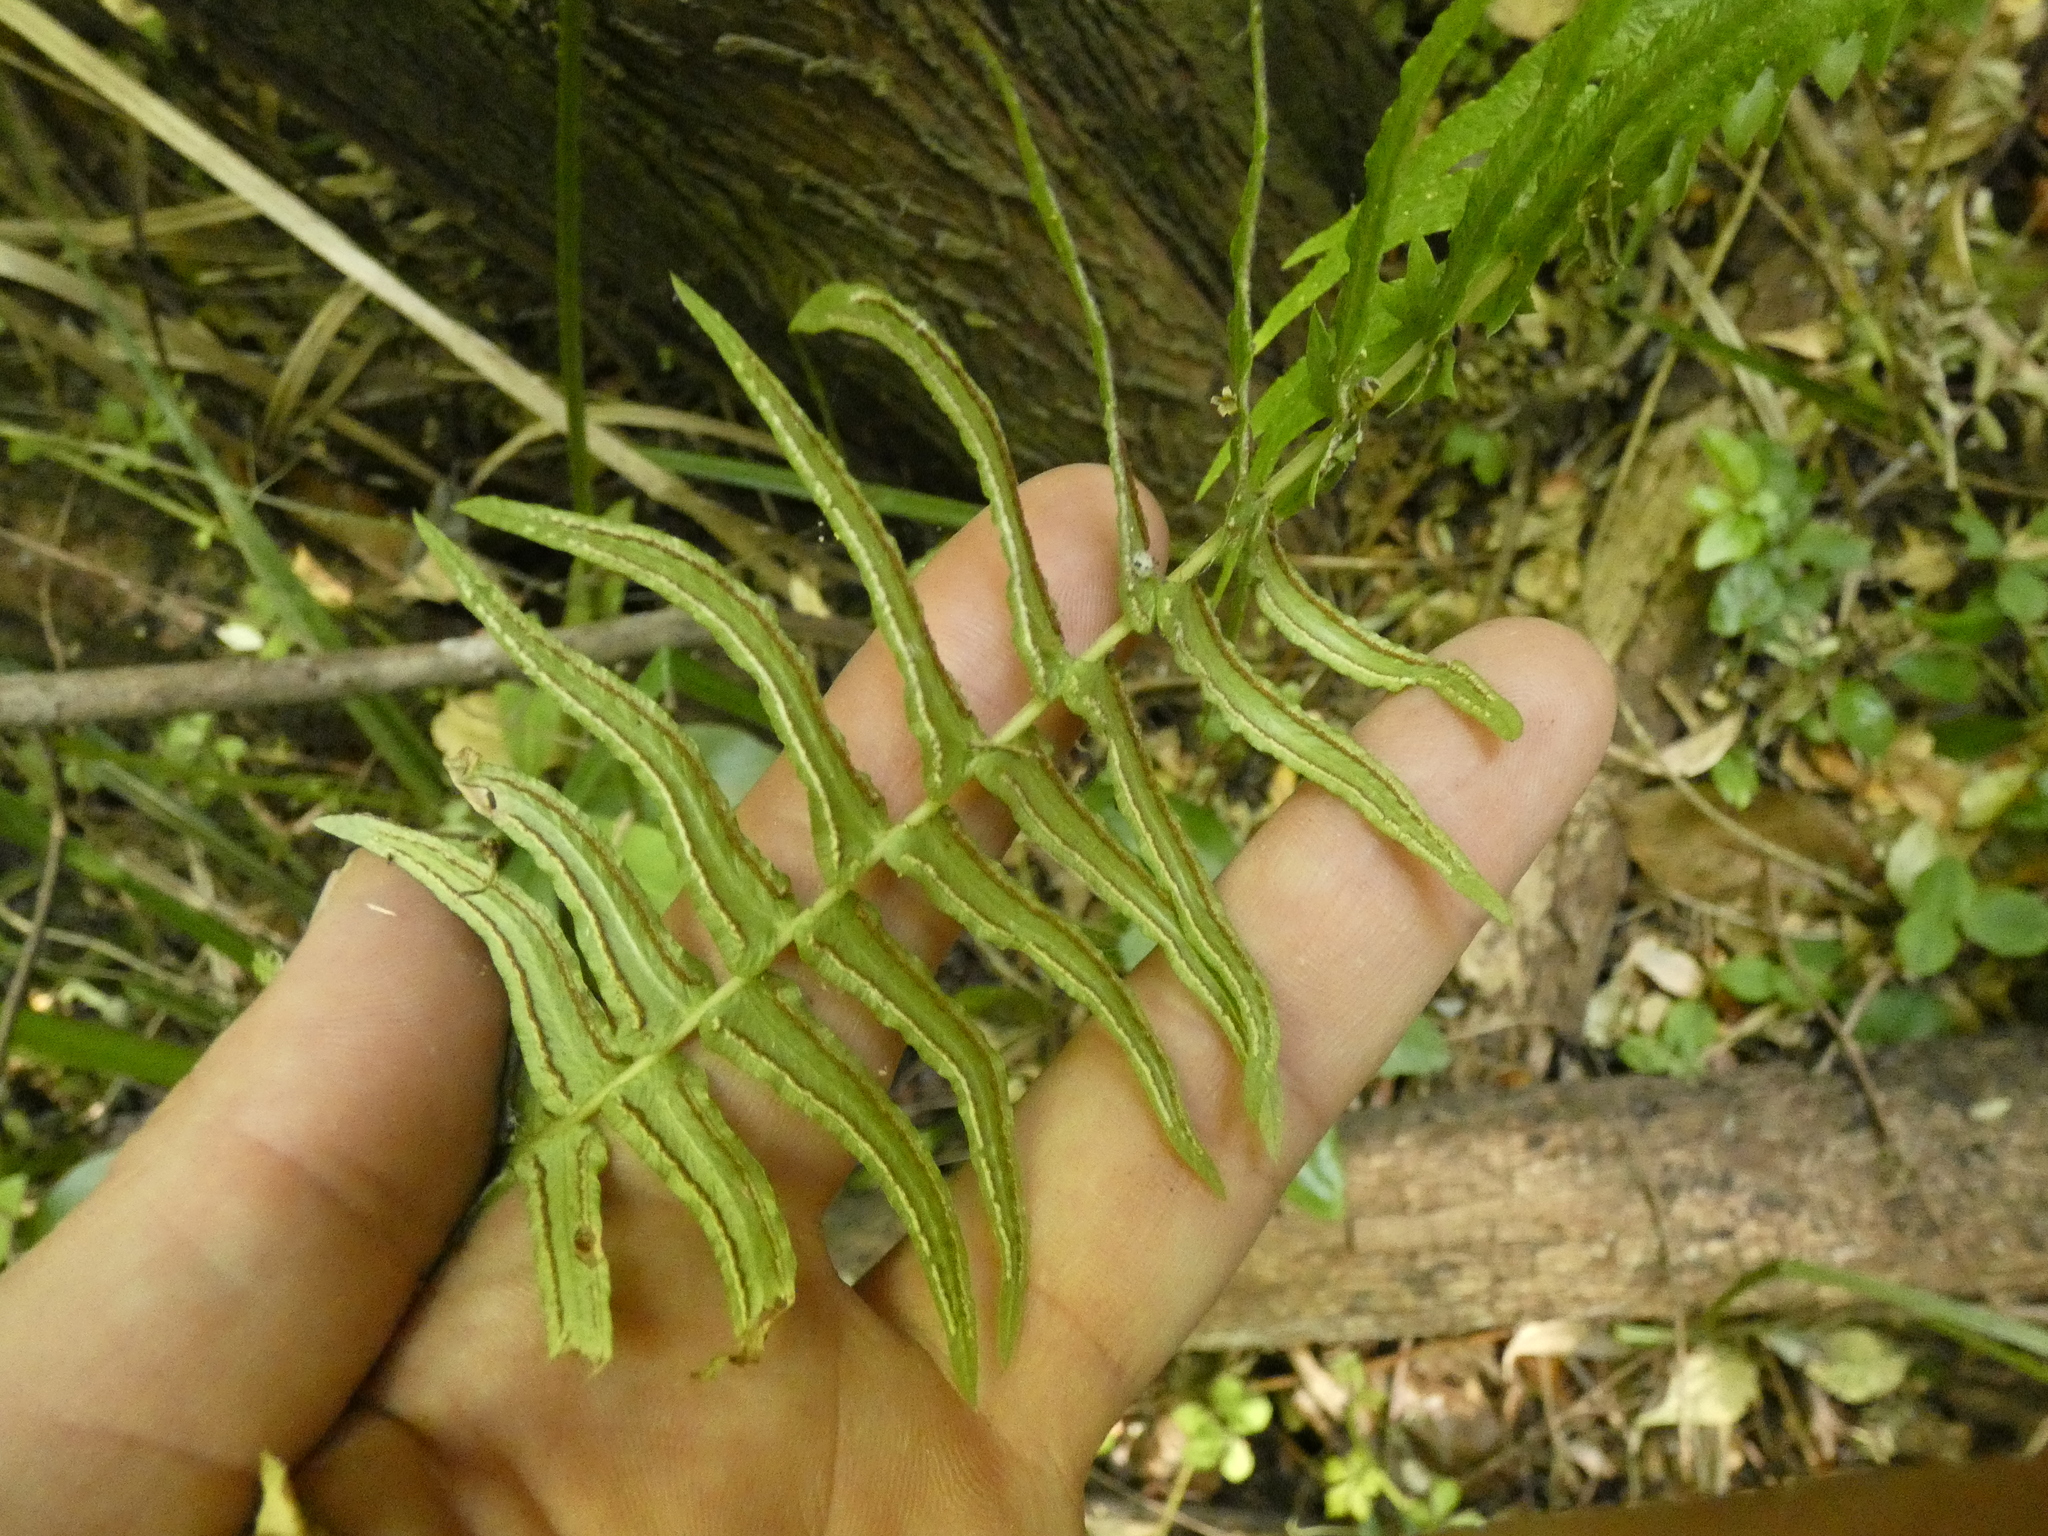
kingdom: Plantae
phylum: Tracheophyta
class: Polypodiopsida
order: Polypodiales
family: Blechnaceae
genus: Blechnum
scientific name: Blechnum hastatum
